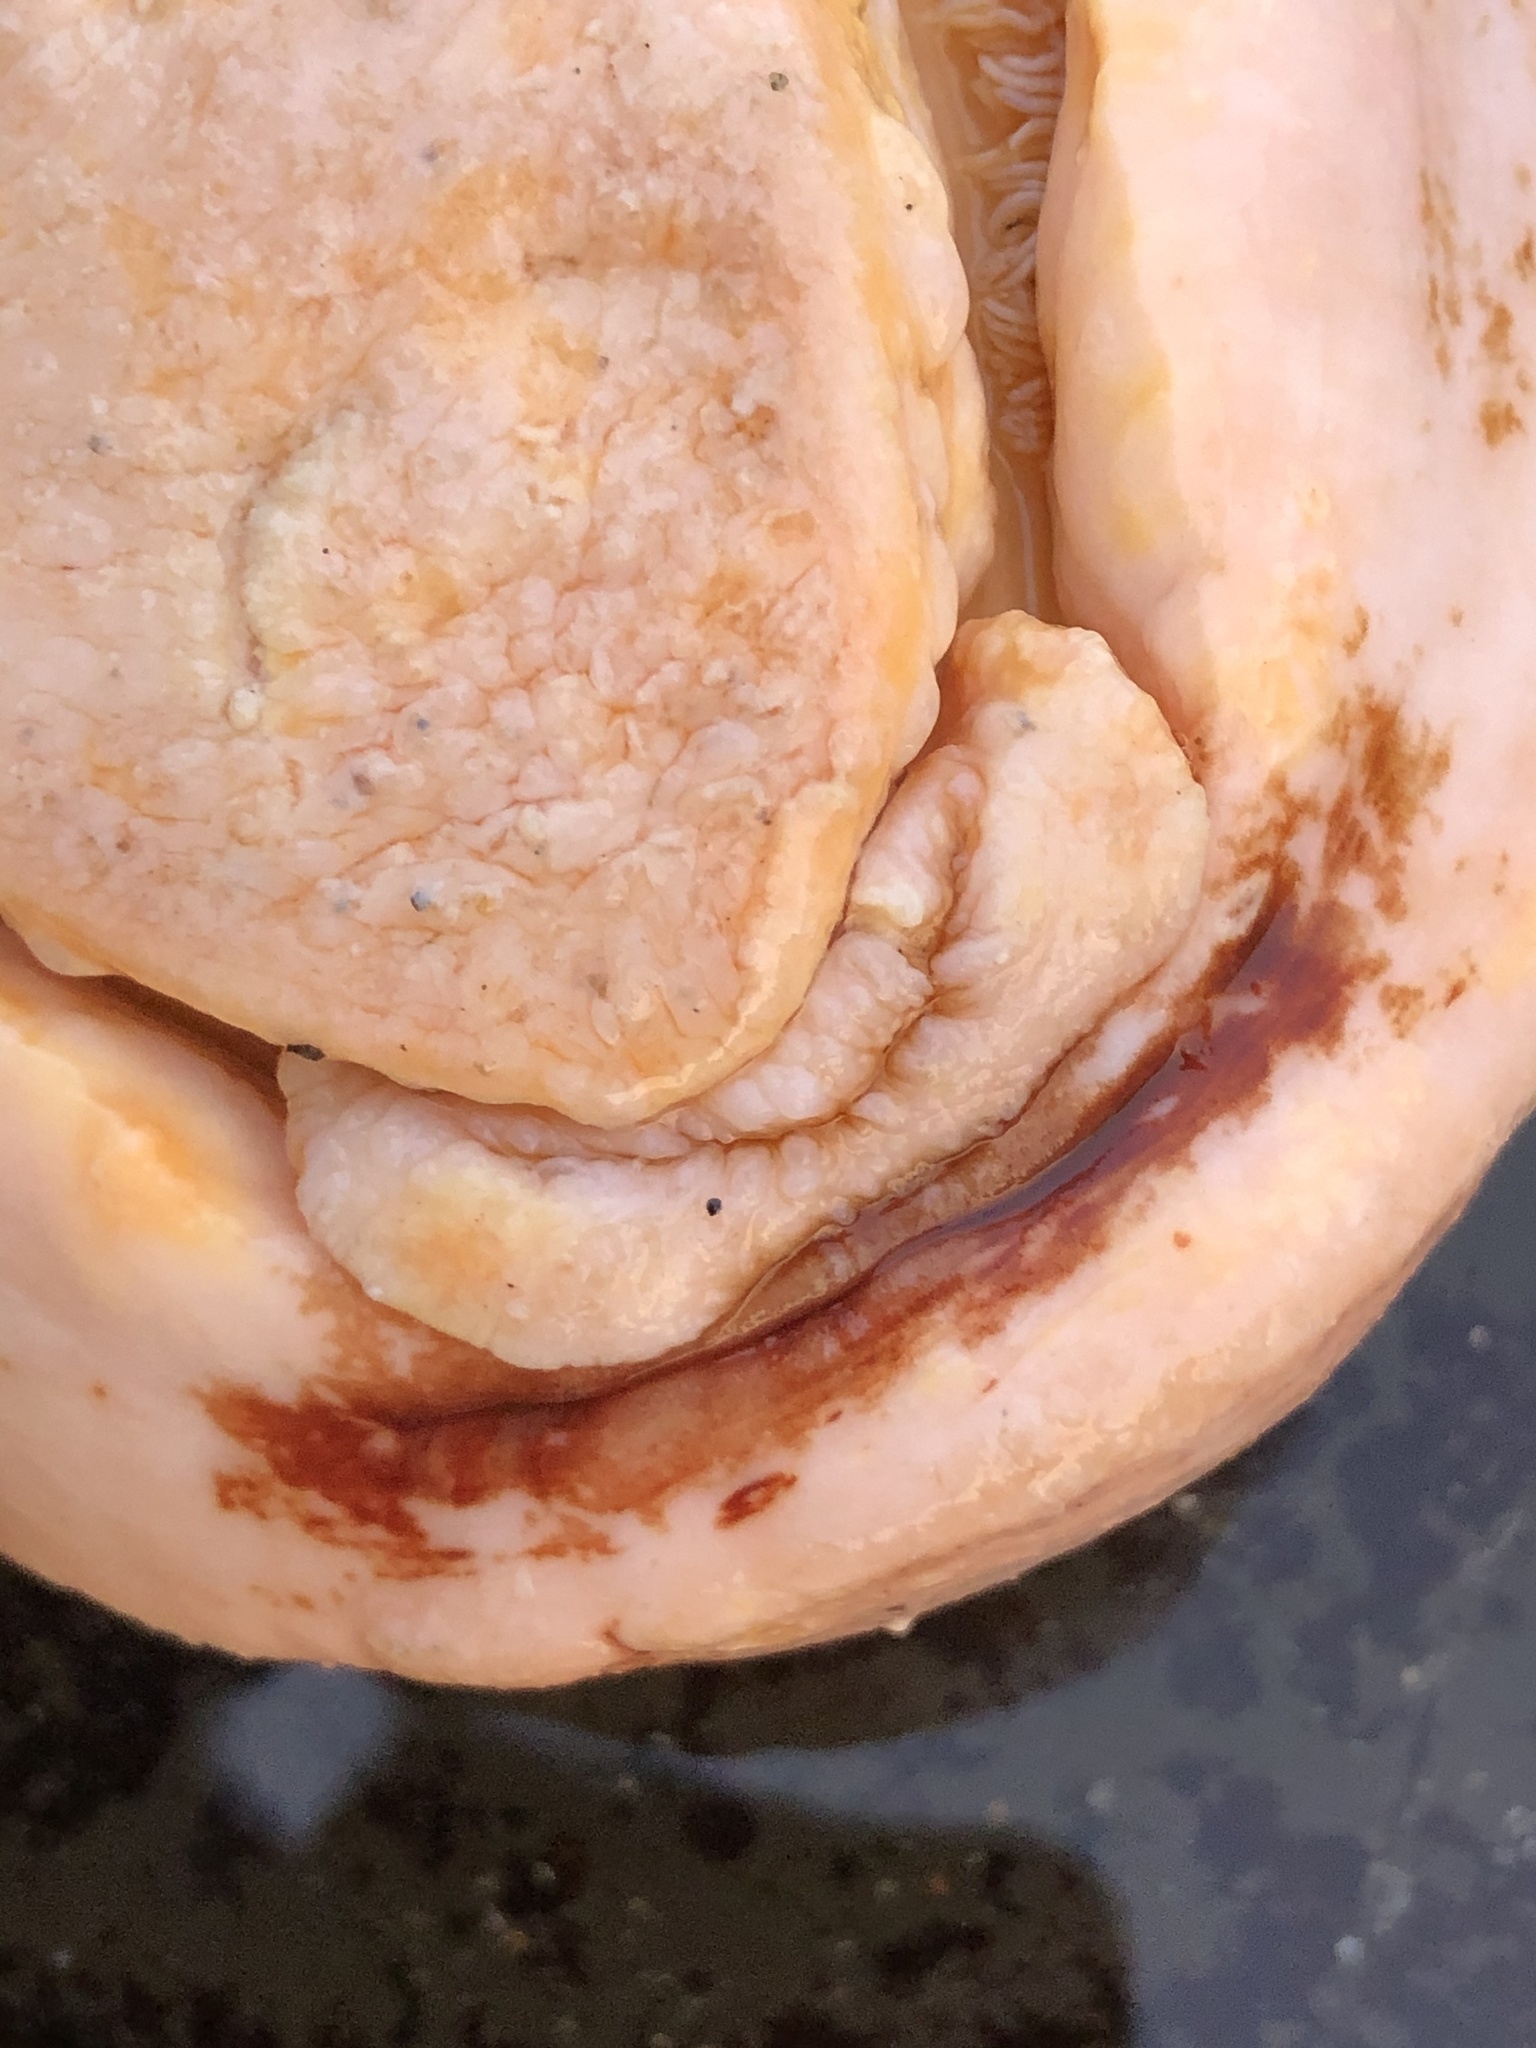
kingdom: Animalia
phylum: Mollusca
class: Polyplacophora
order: Chitonida
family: Acanthochitonidae
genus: Cryptochiton
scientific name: Cryptochiton stelleri
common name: Giant pacific chiton
